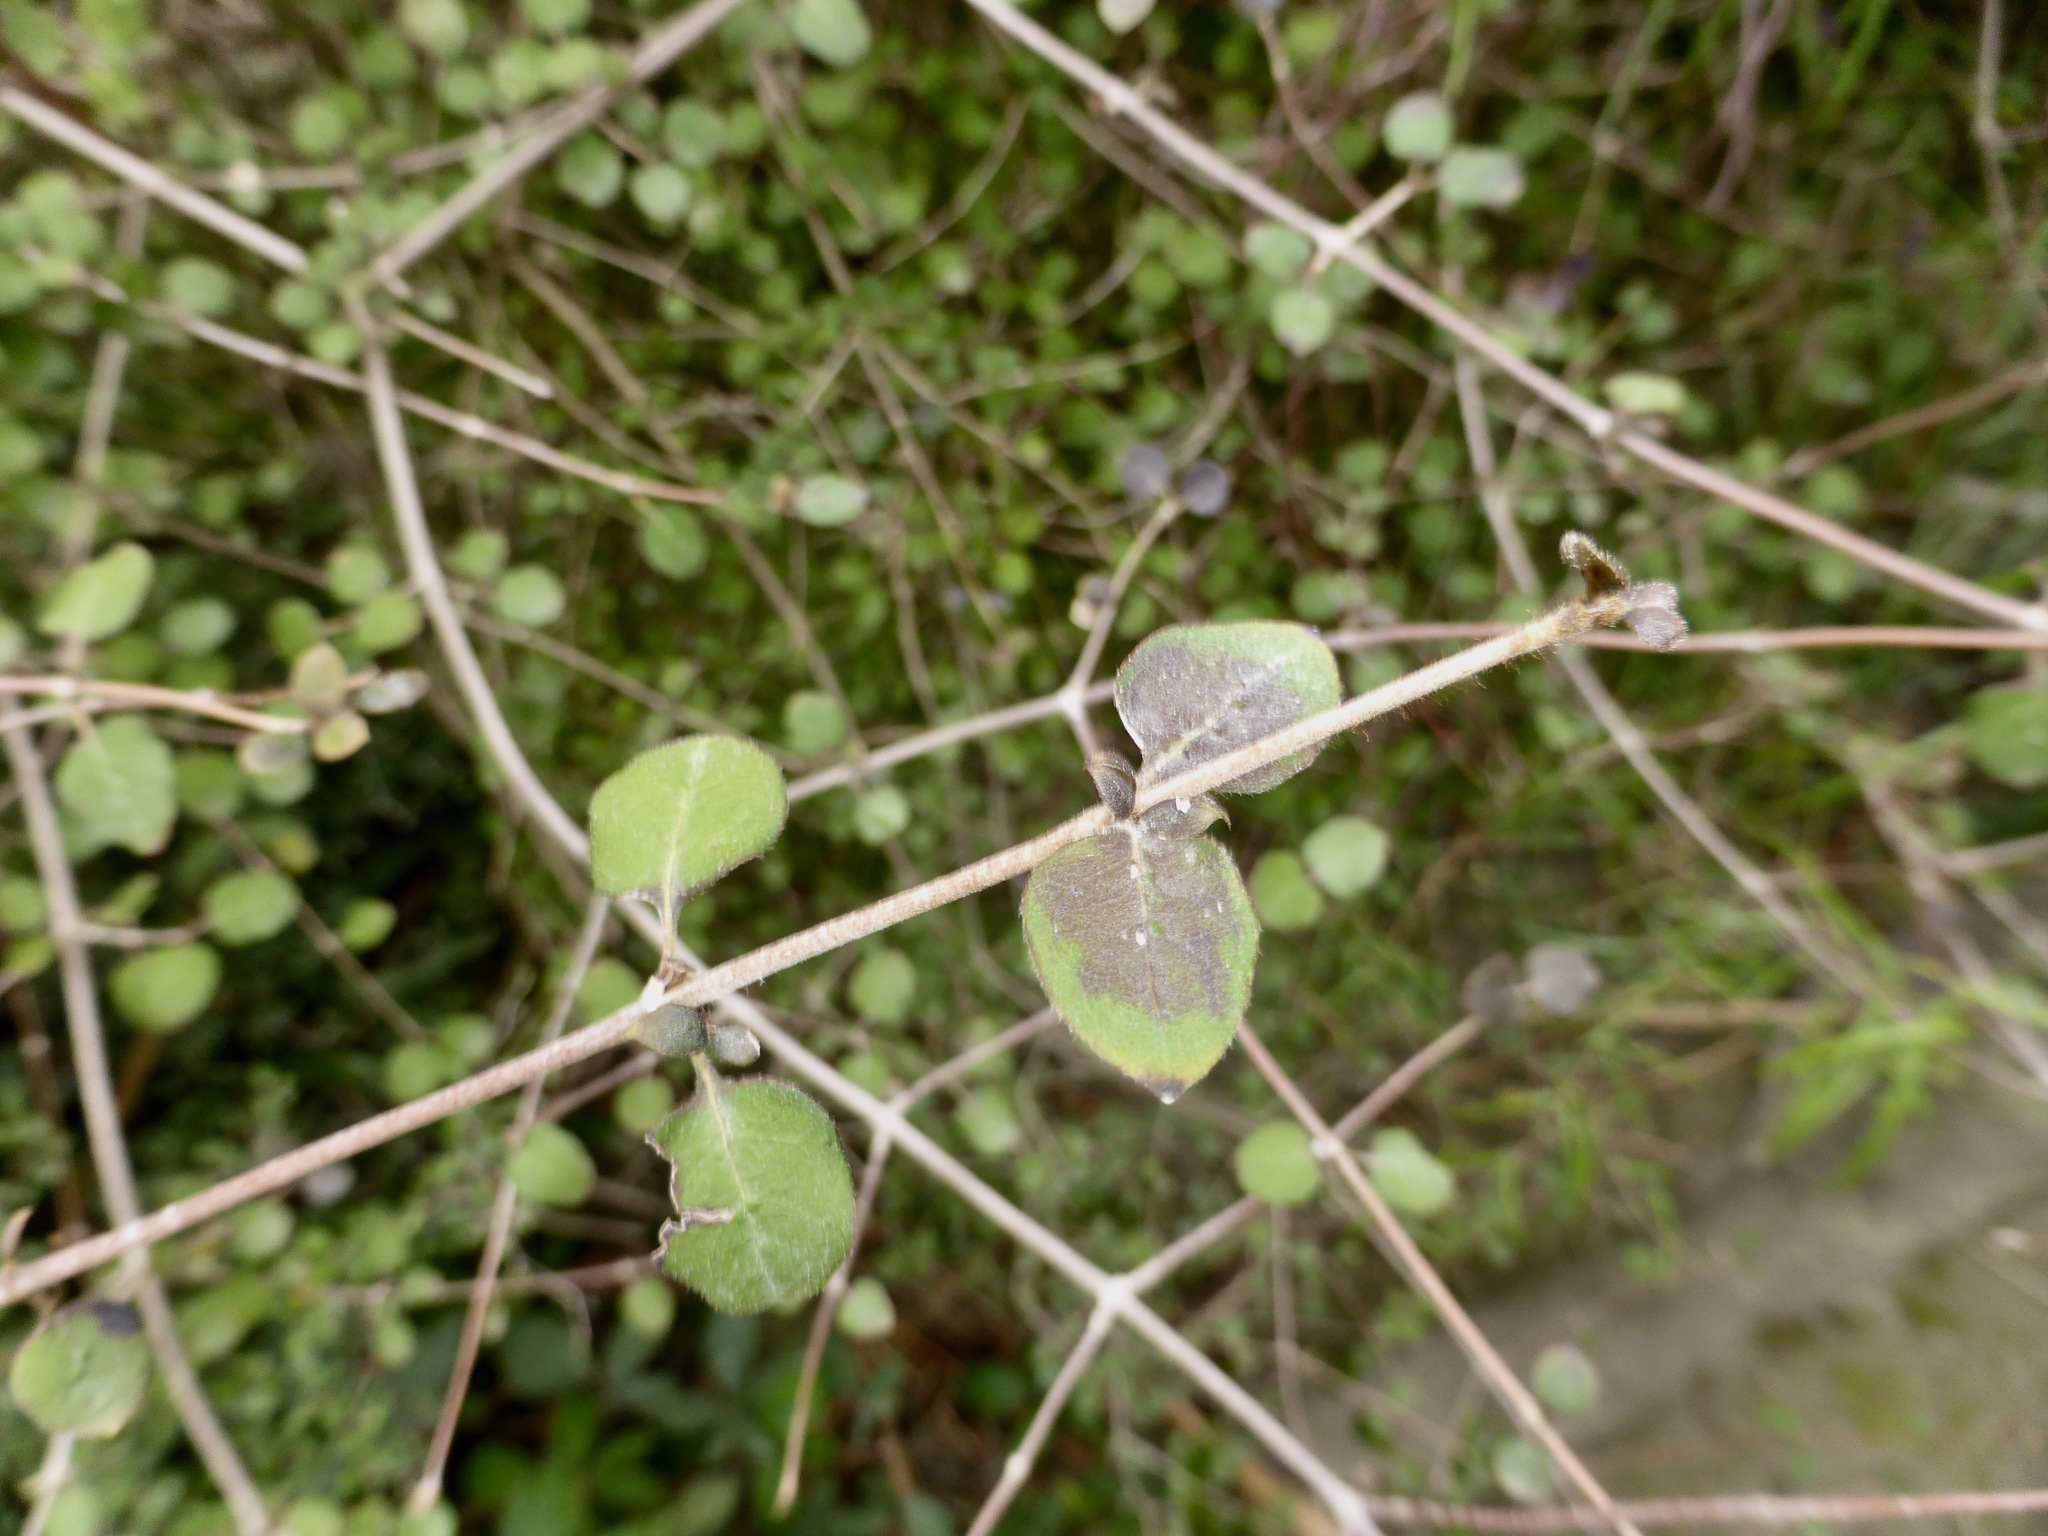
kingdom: Plantae
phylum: Tracheophyta
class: Magnoliopsida
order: Gentianales
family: Rubiaceae
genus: Coprosma
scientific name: Coprosma rotundifolia
